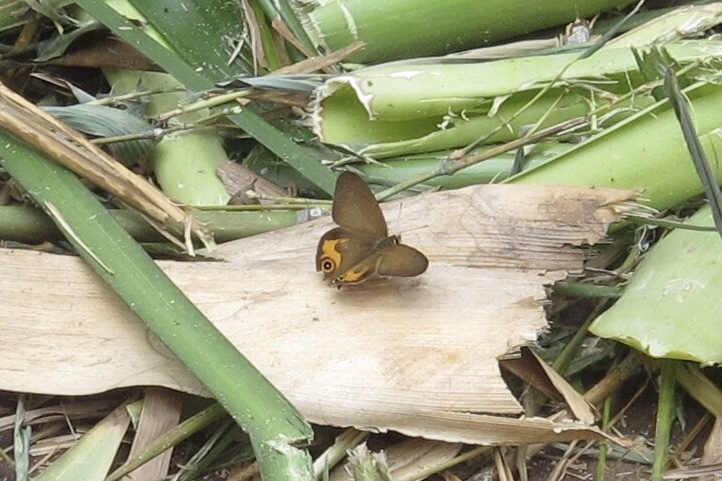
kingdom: Animalia
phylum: Arthropoda
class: Insecta
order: Lepidoptera
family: Nymphalidae
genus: Hypocysta
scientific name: Hypocysta metirius
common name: Brown ringlet
